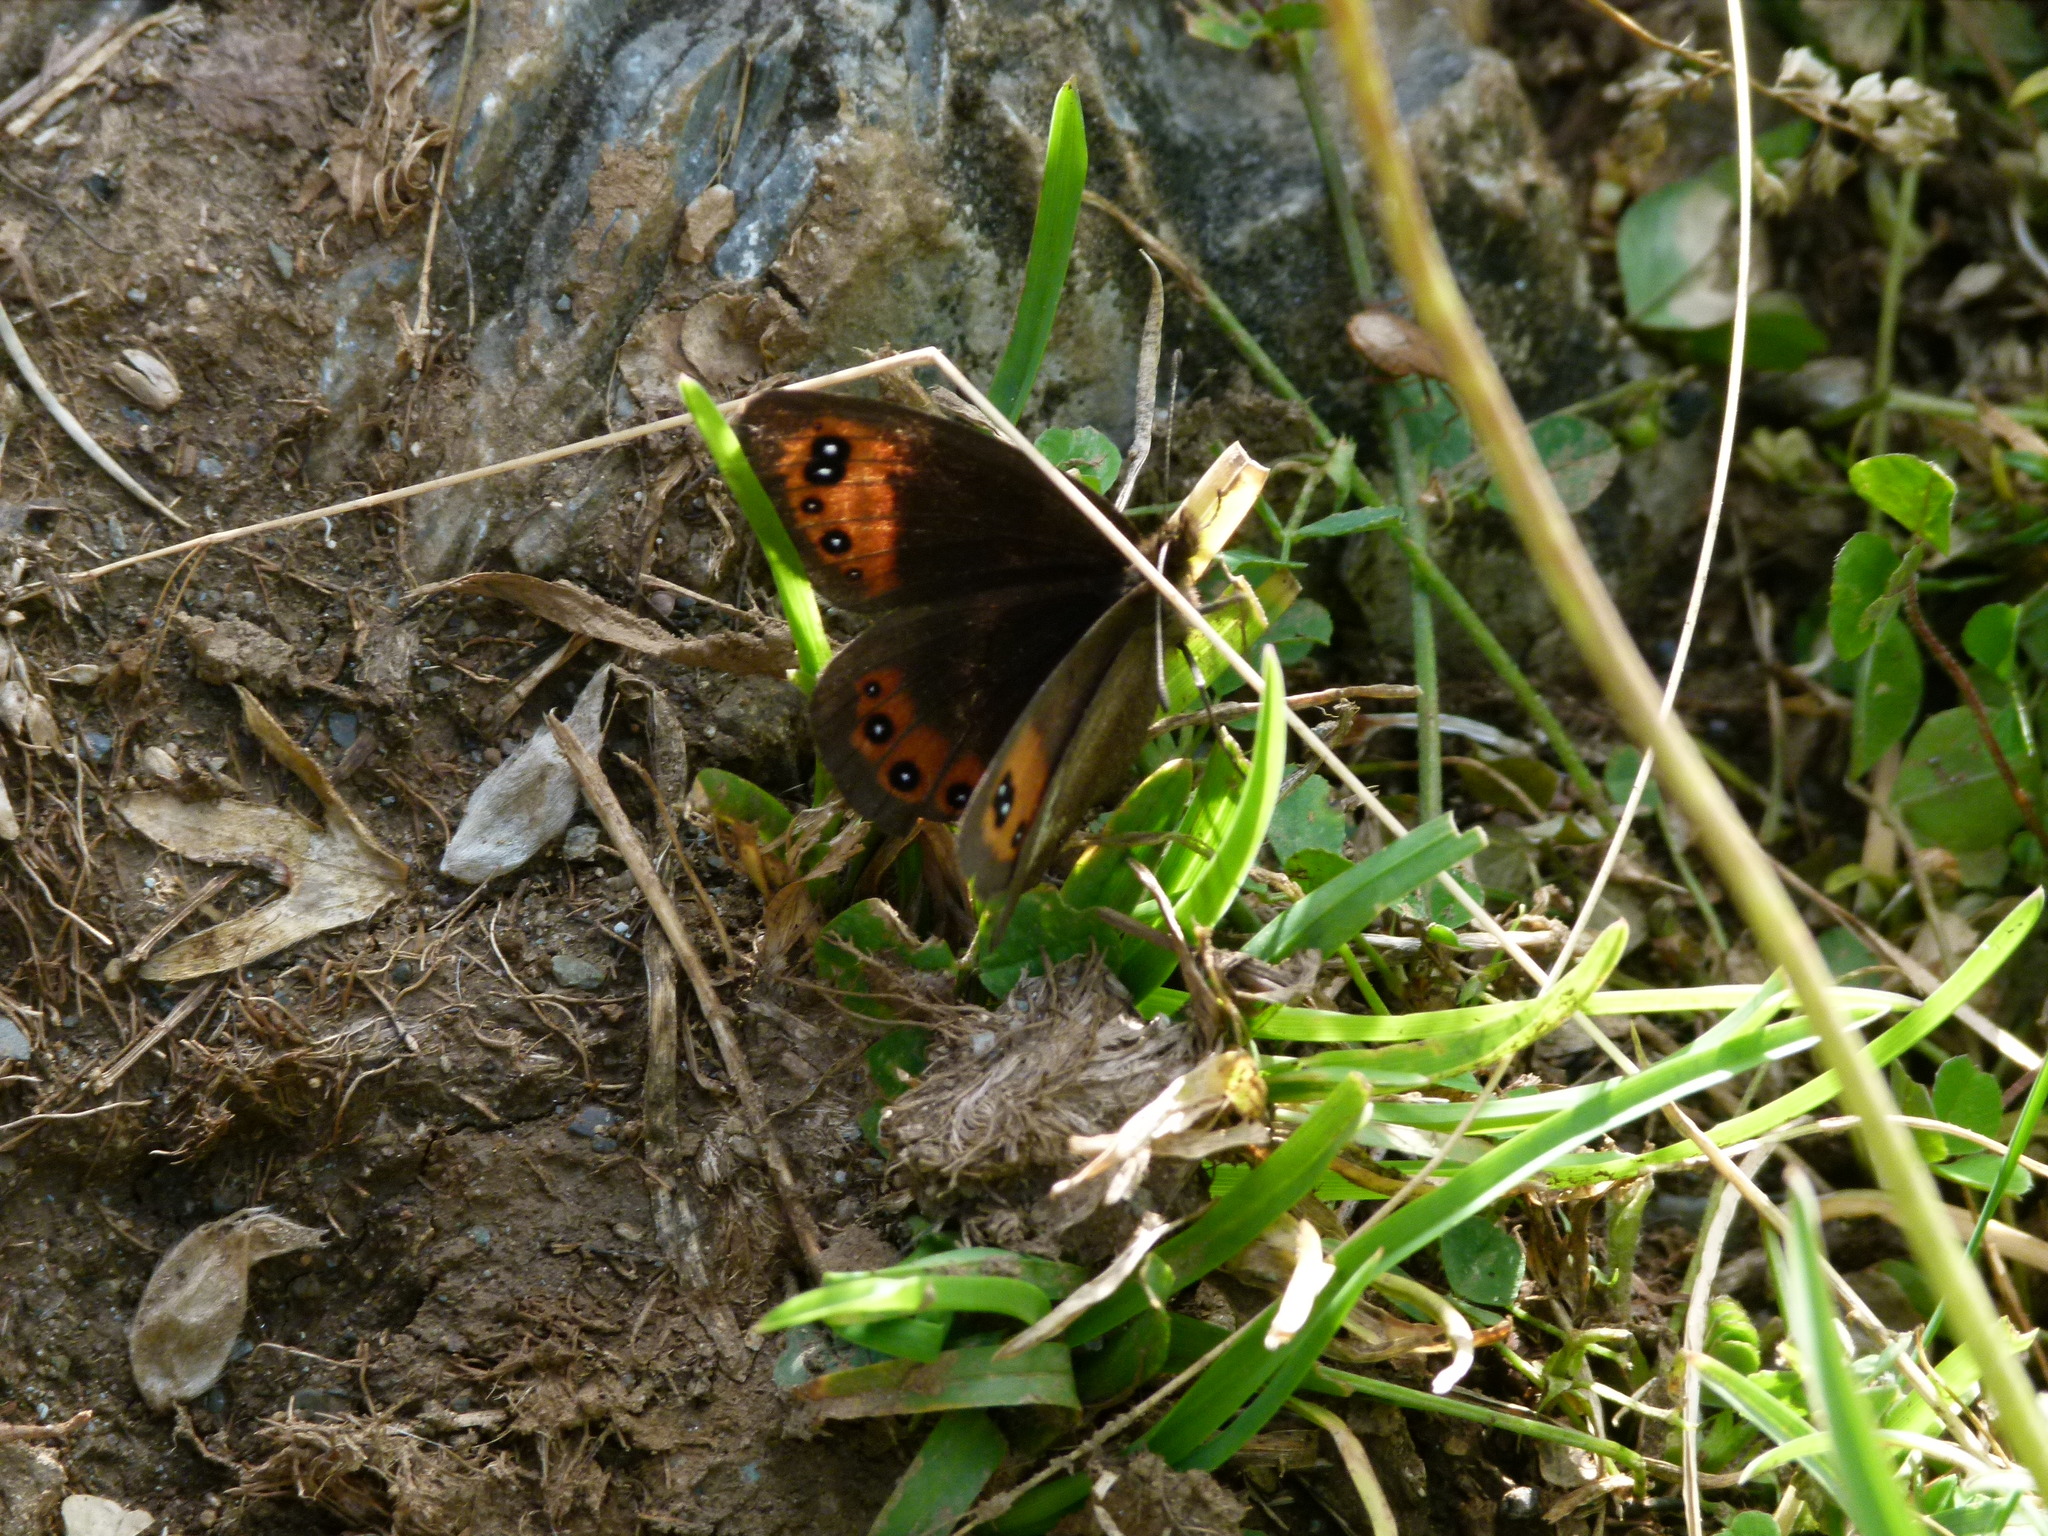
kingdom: Animalia
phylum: Arthropoda
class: Insecta
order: Lepidoptera
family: Nymphalidae
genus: Erebia
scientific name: Erebia neoridas
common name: Autumn ringlet
